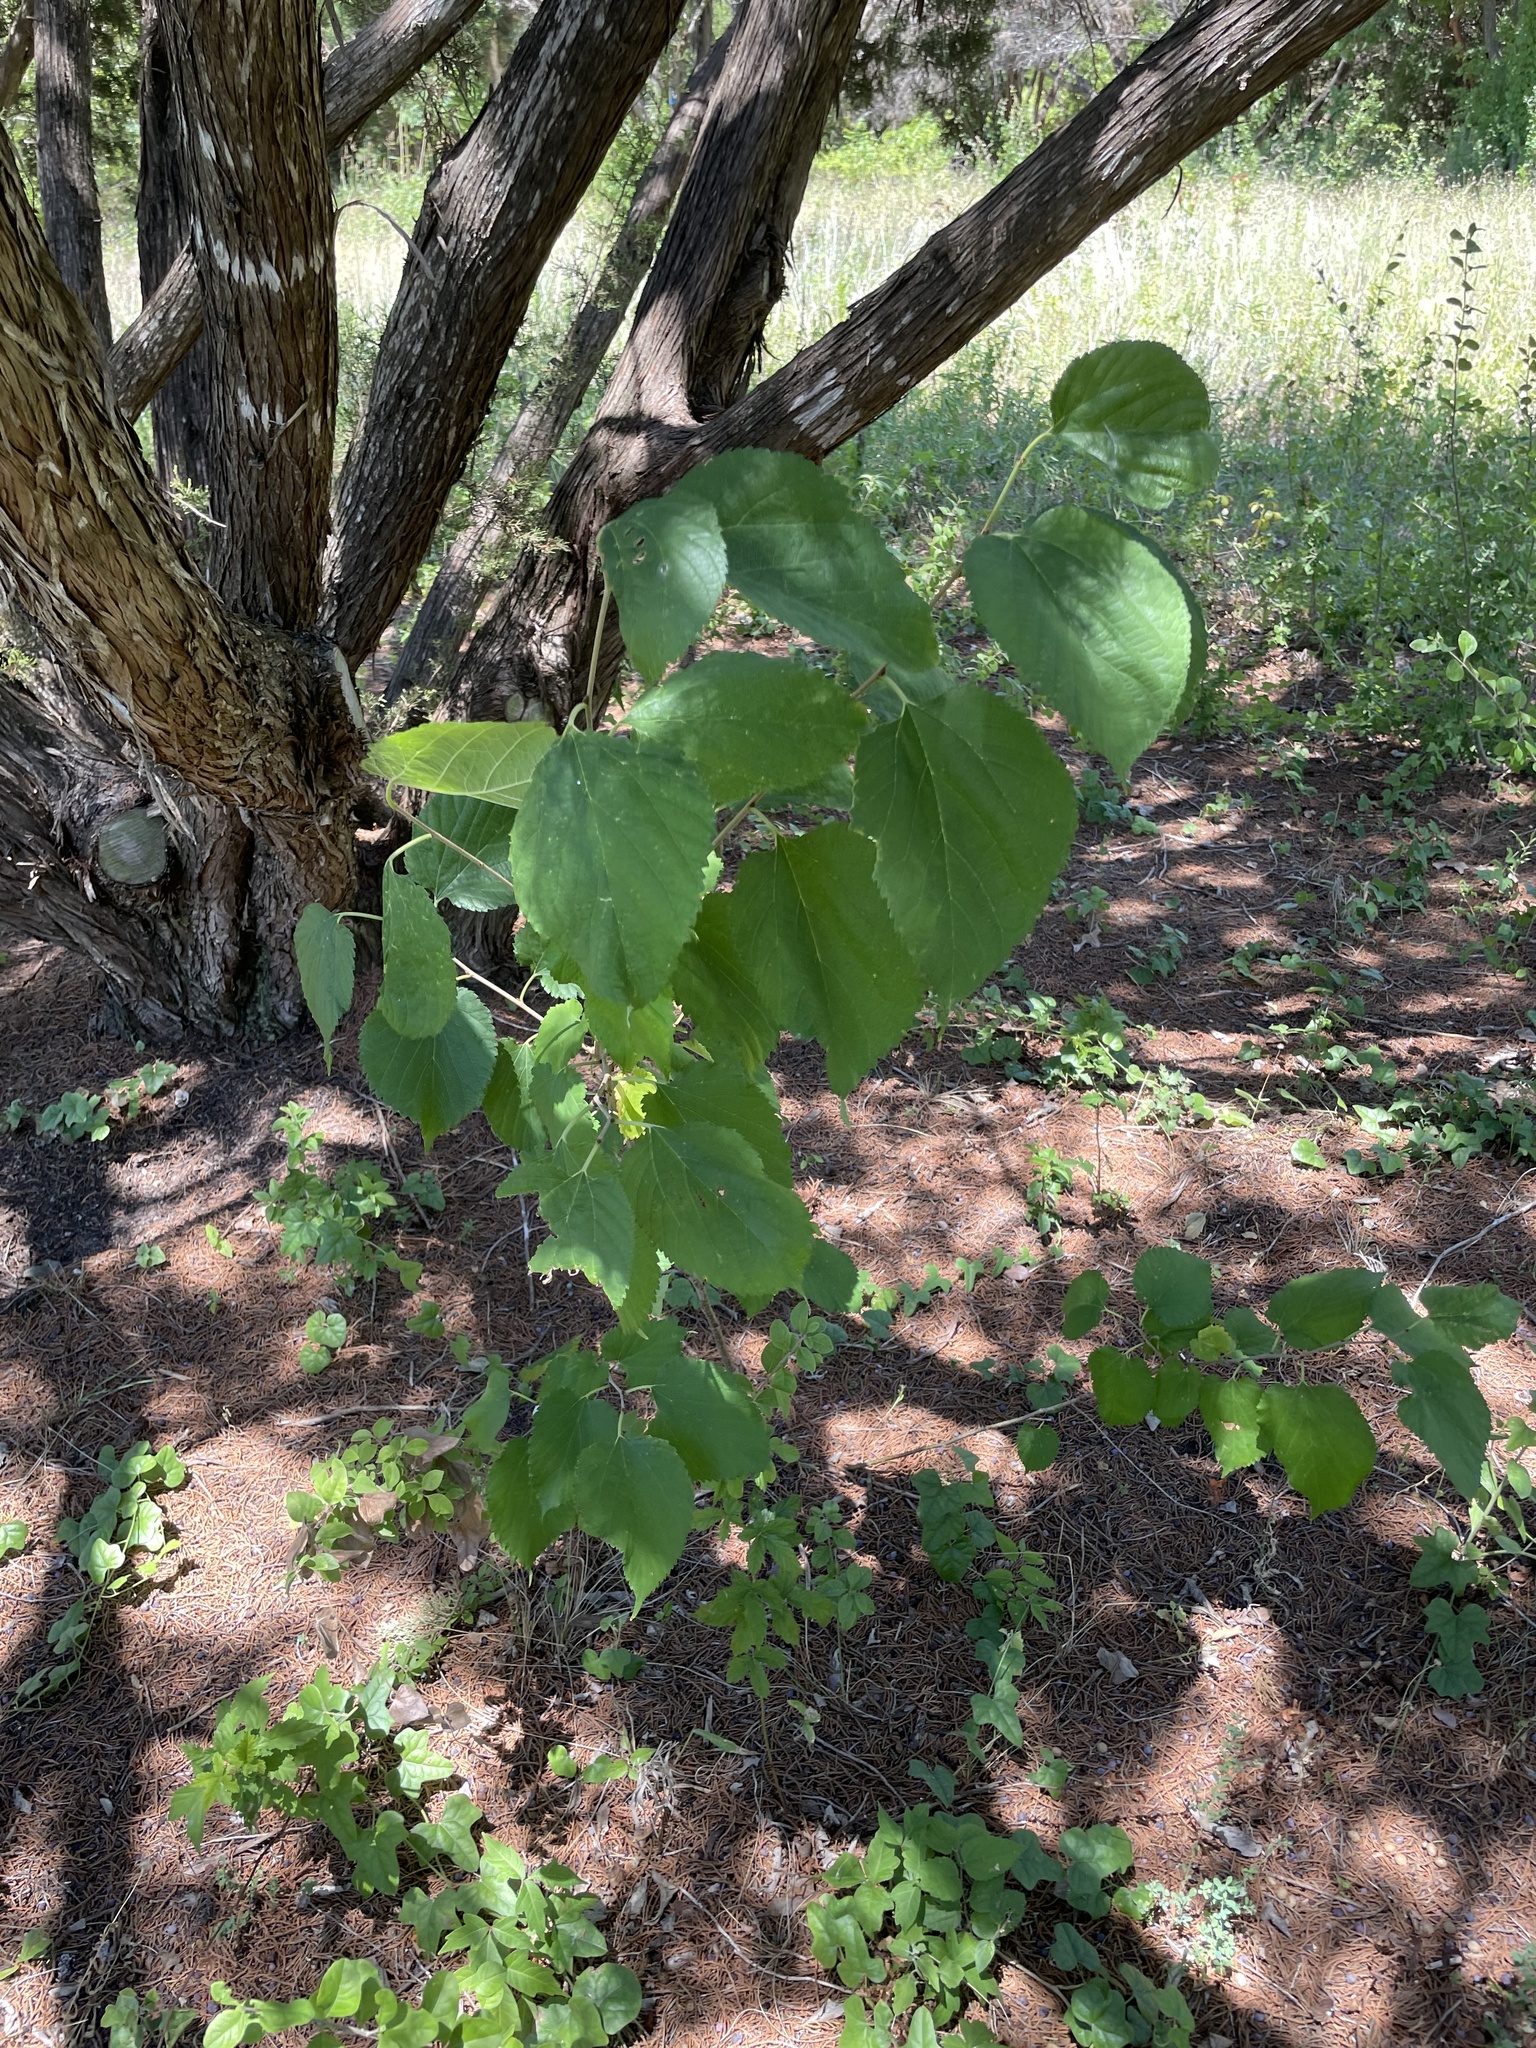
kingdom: Plantae
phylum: Tracheophyta
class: Magnoliopsida
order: Rosales
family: Moraceae
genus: Morus
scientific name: Morus alba
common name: White mulberry
